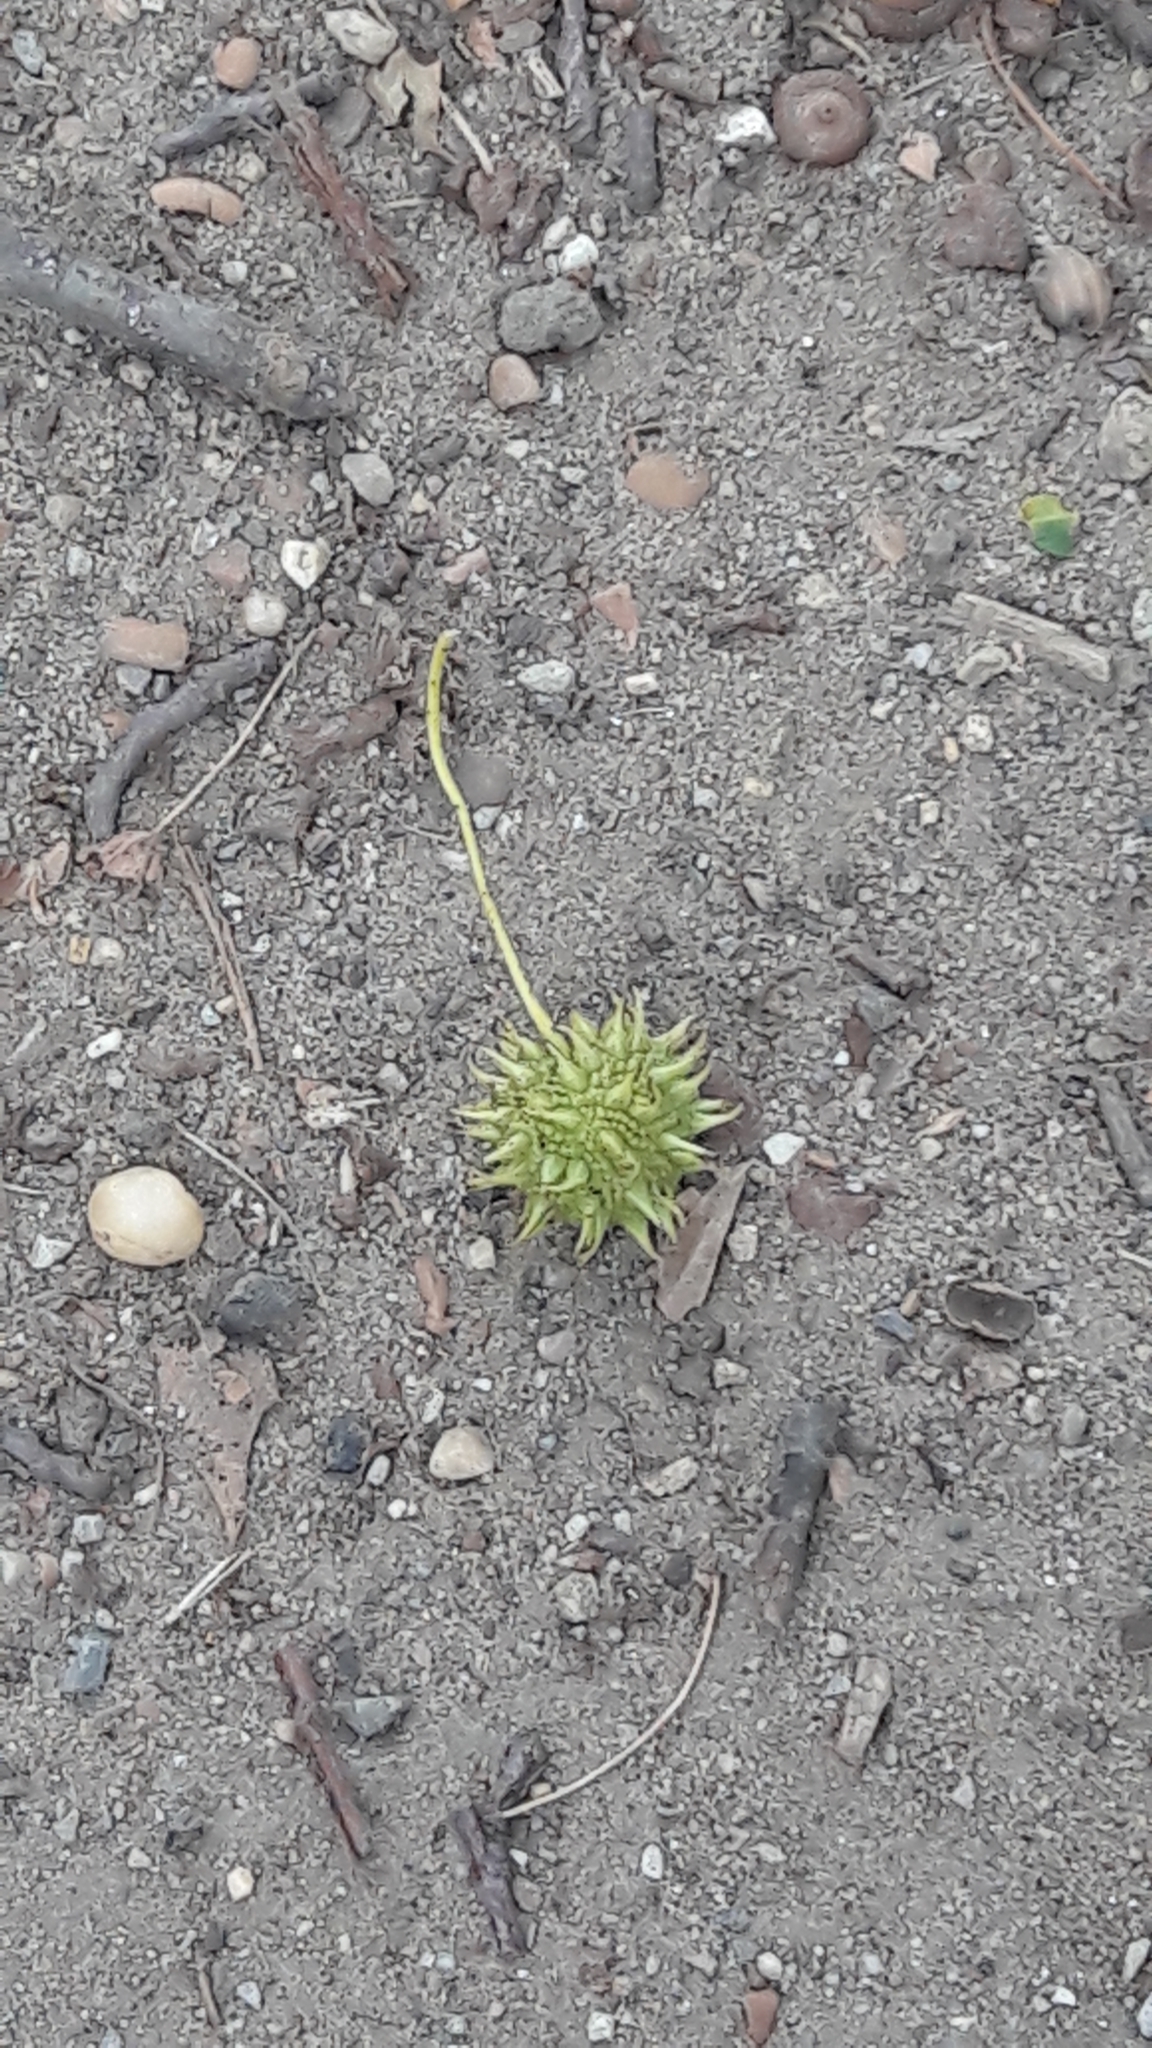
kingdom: Plantae
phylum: Tracheophyta
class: Magnoliopsida
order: Saxifragales
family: Altingiaceae
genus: Liquidambar
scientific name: Liquidambar styraciflua
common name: Sweet gum
